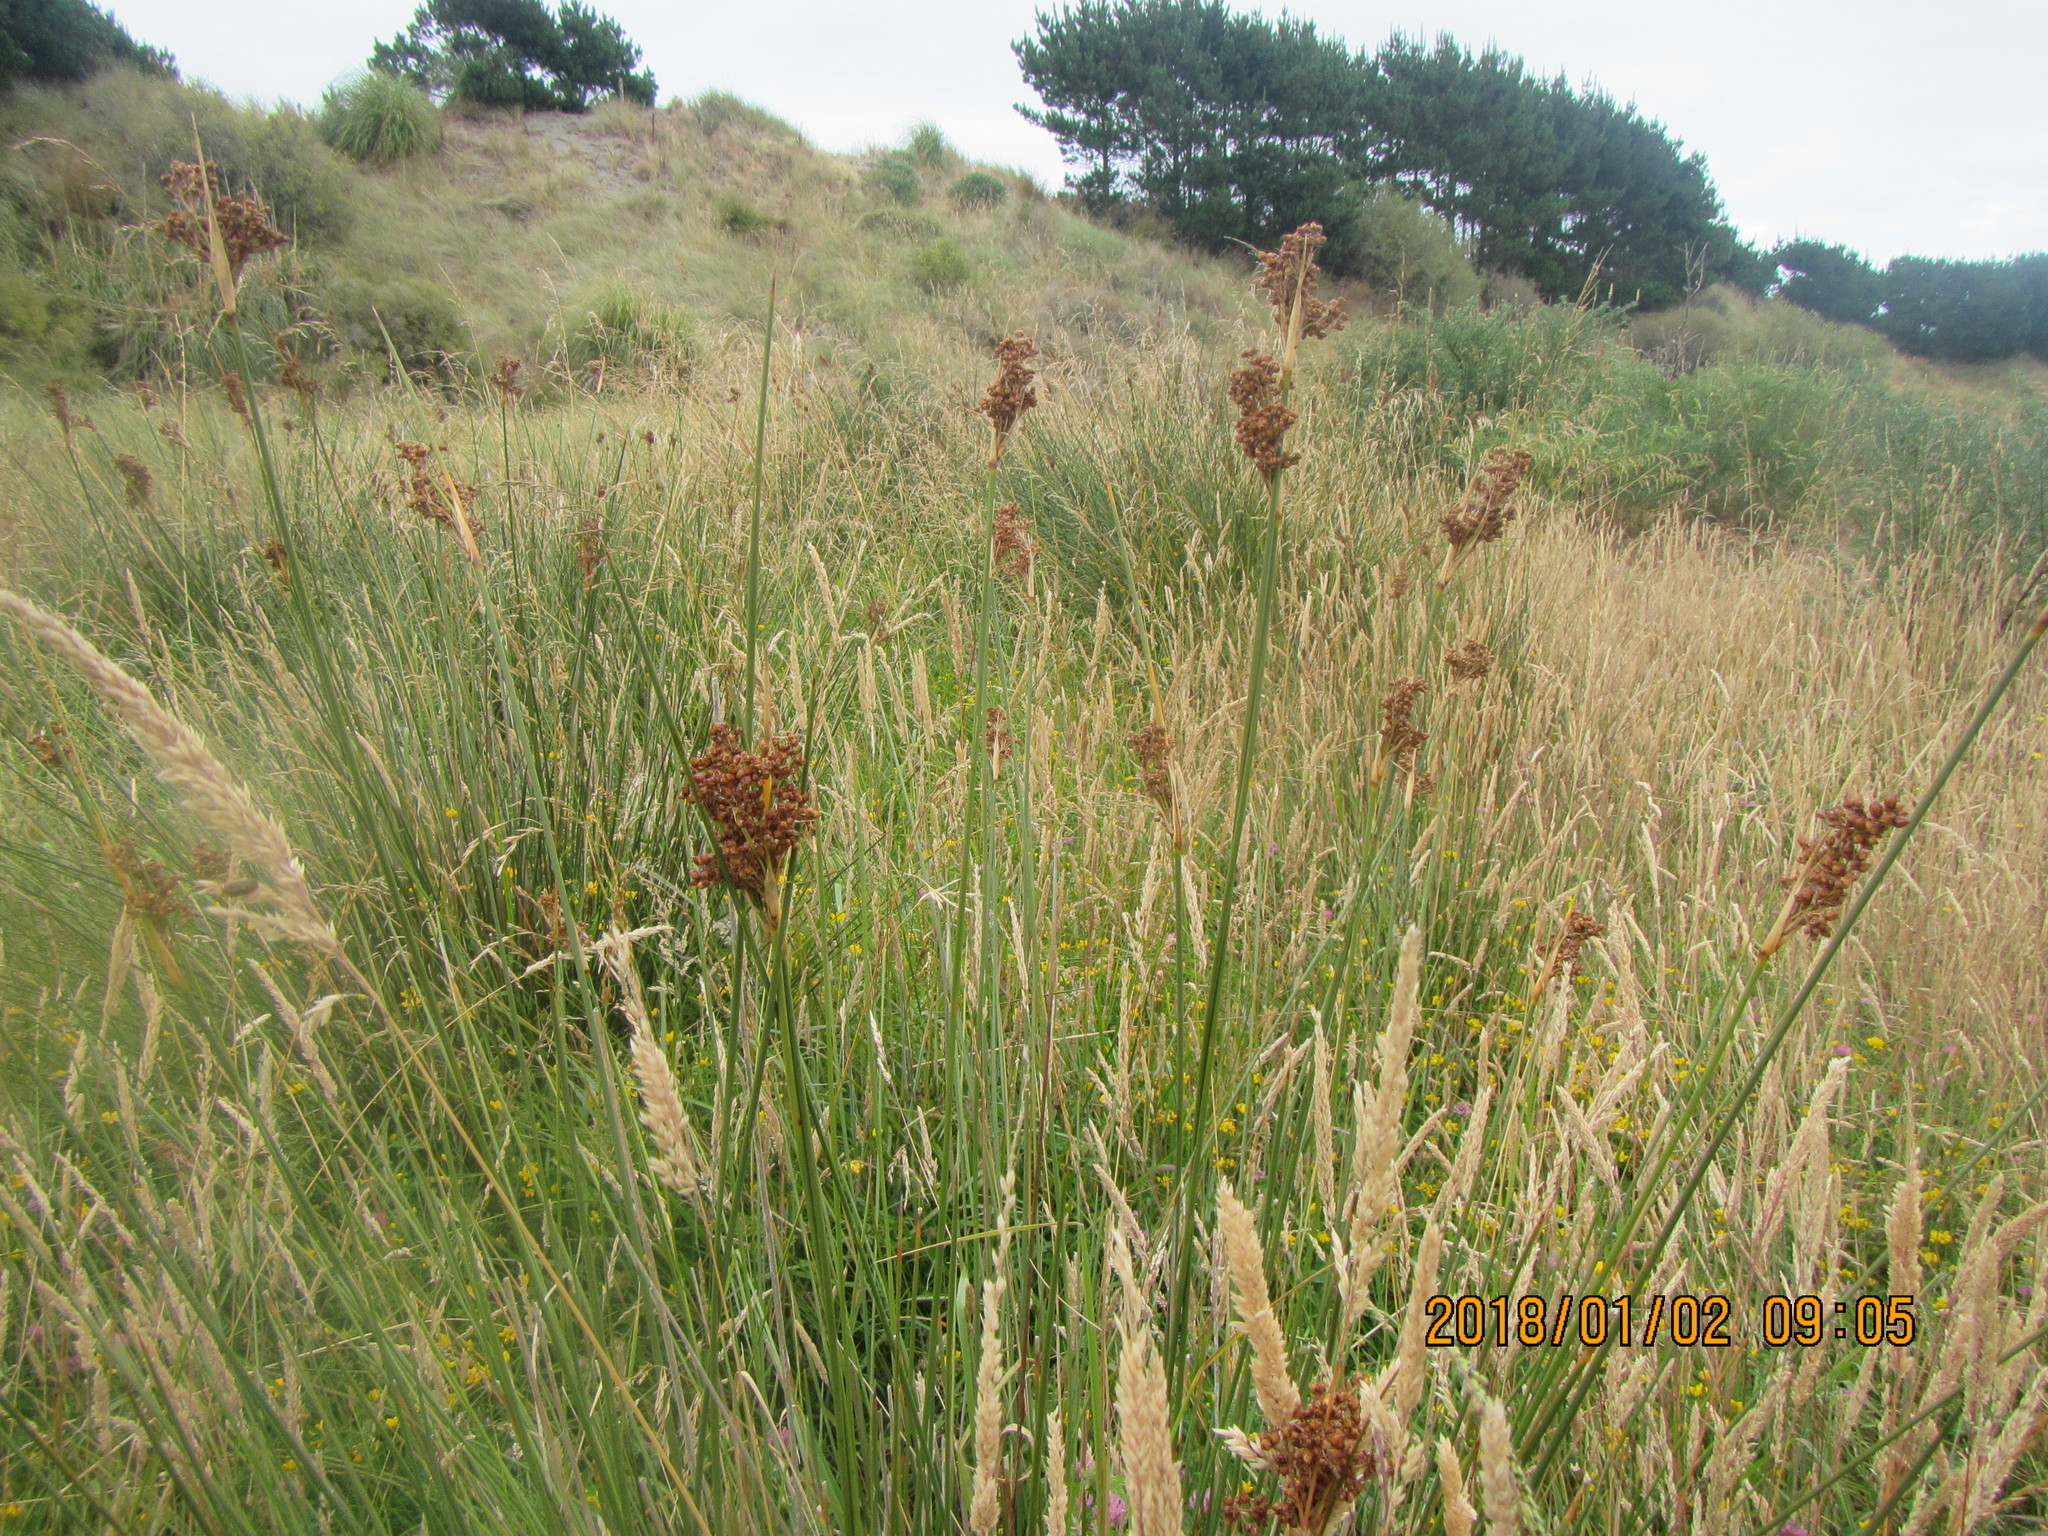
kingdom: Plantae
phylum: Tracheophyta
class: Liliopsida
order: Poales
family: Juncaceae
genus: Juncus
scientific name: Juncus acutus
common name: Sharp rush
